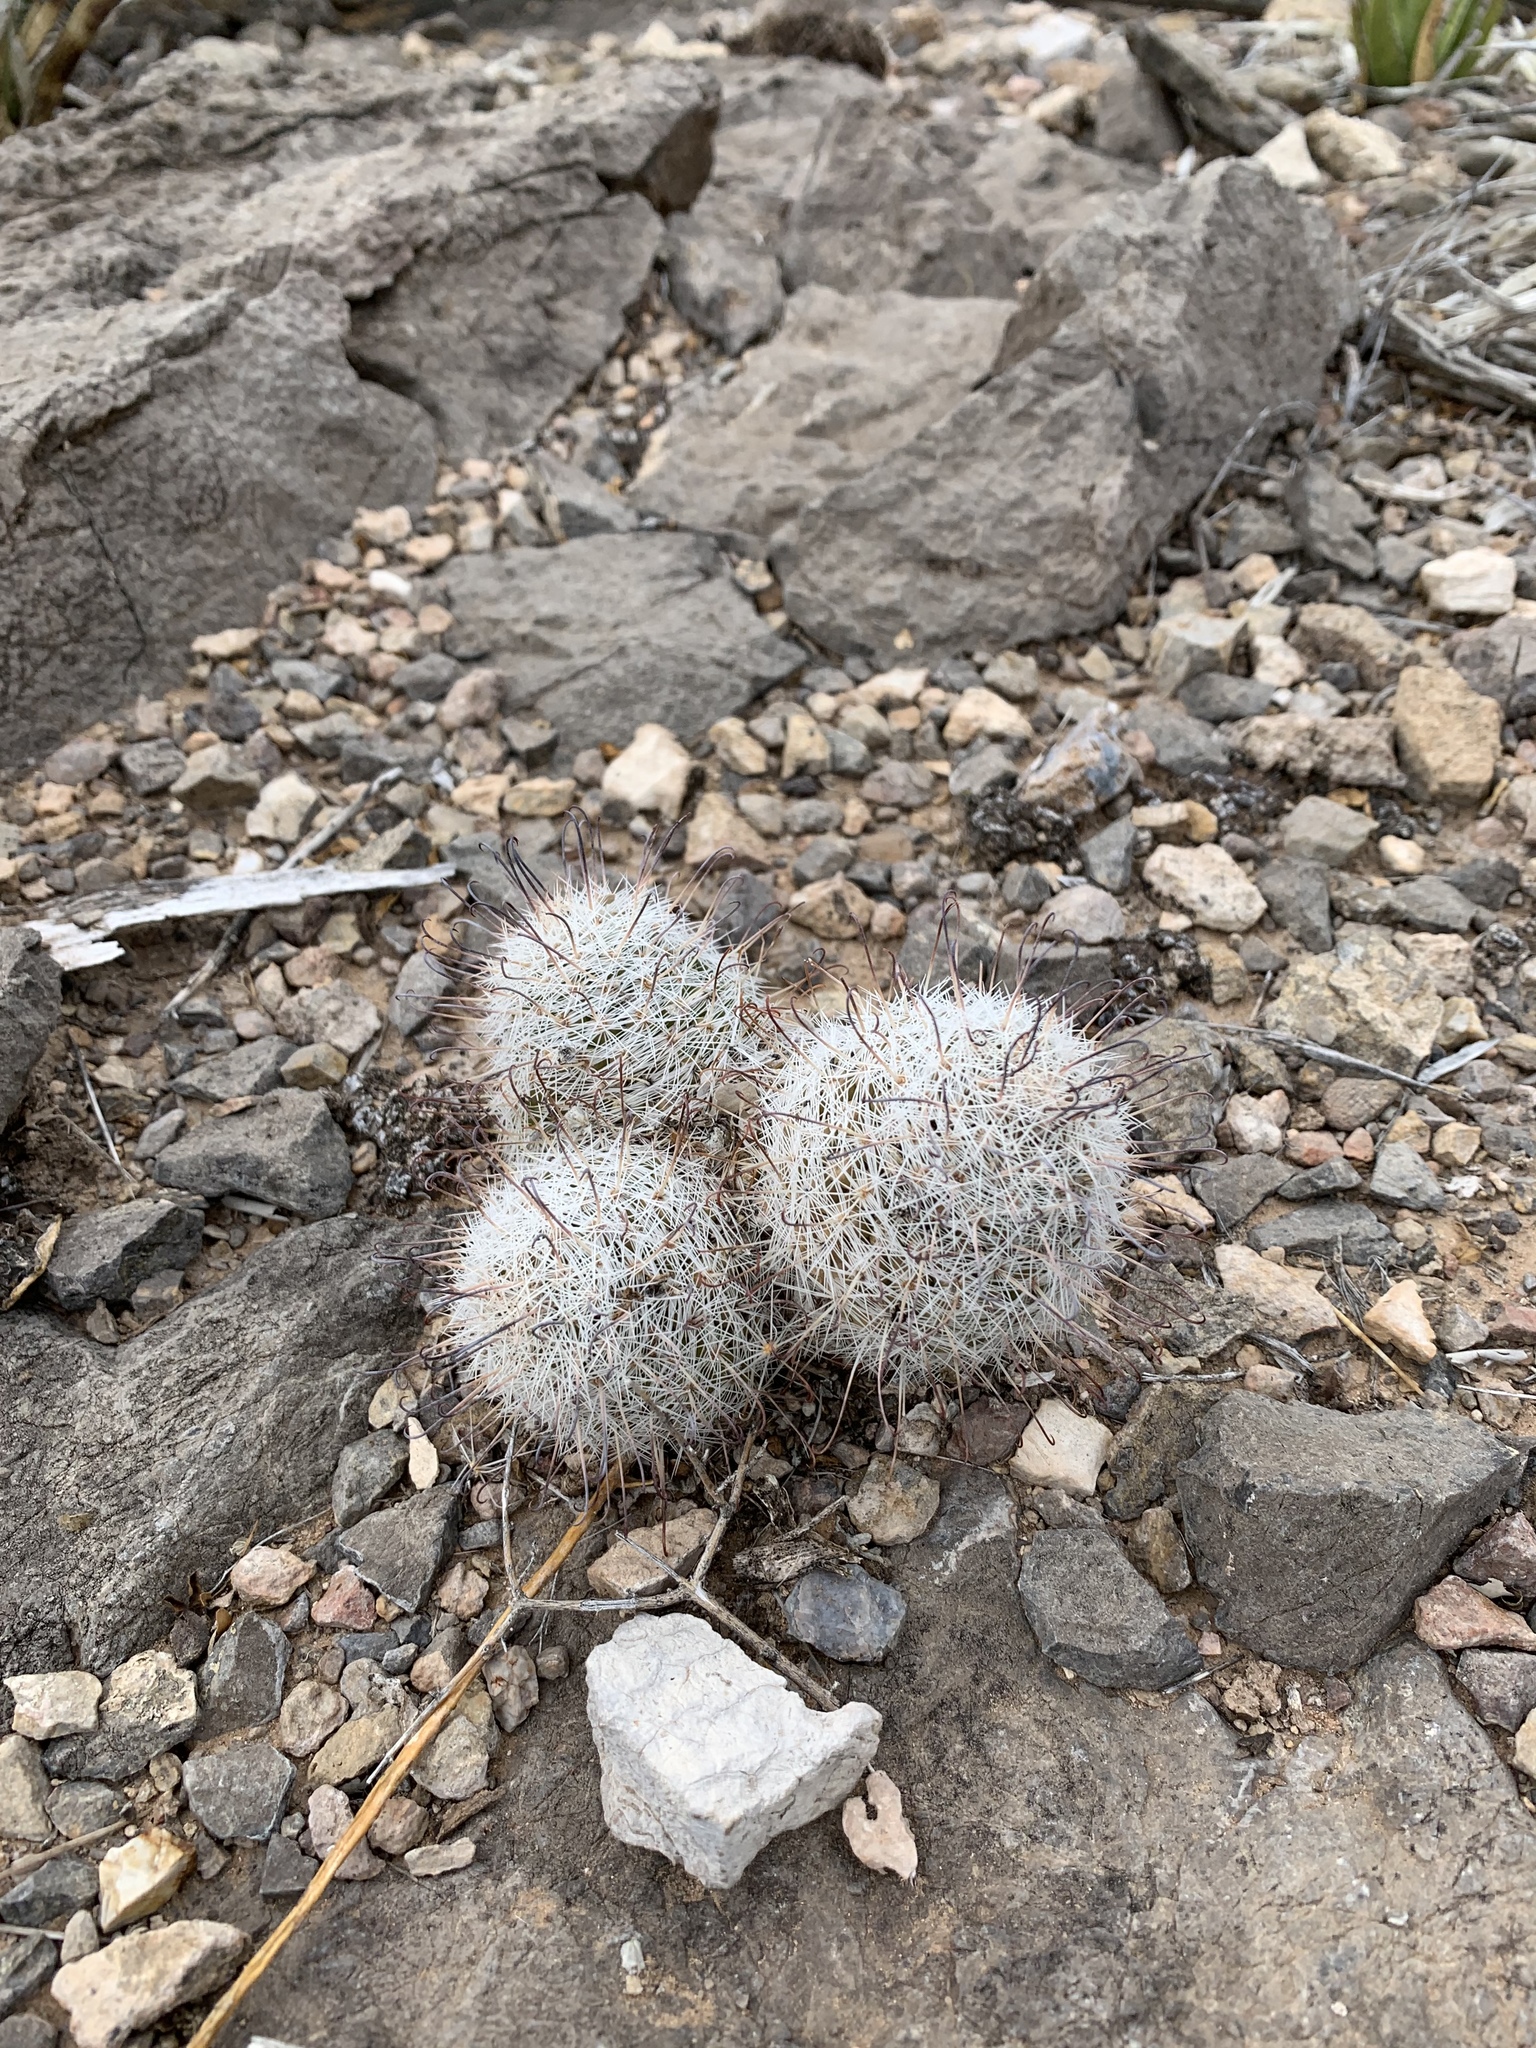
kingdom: Plantae
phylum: Tracheophyta
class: Magnoliopsida
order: Caryophyllales
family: Cactaceae
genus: Cochemiea
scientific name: Cochemiea grahamii
